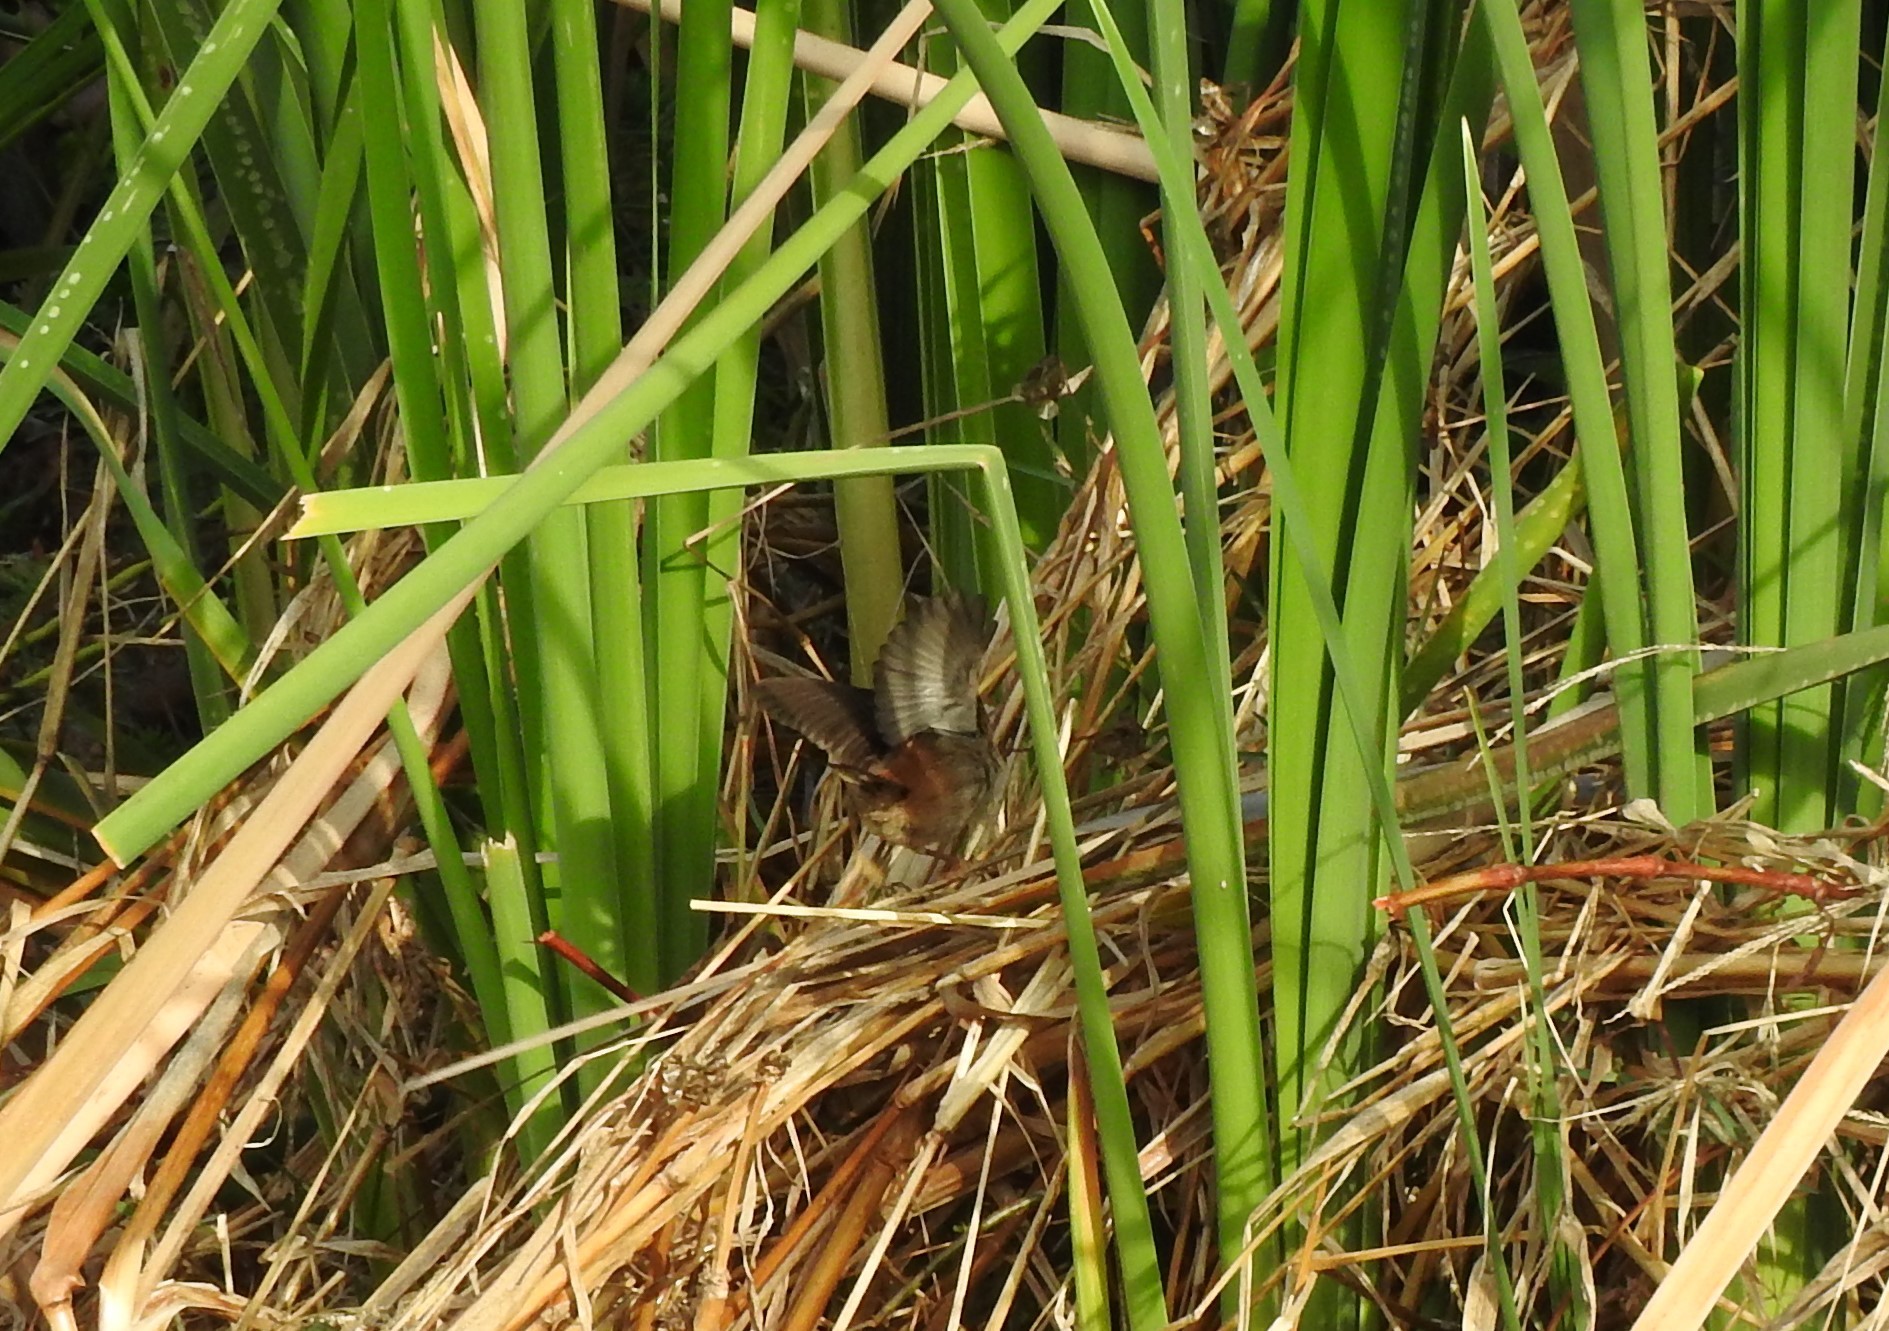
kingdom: Animalia
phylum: Chordata
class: Aves
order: Passeriformes
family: Troglodytidae
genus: Cistothorus
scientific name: Cistothorus palustris
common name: Marsh wren
